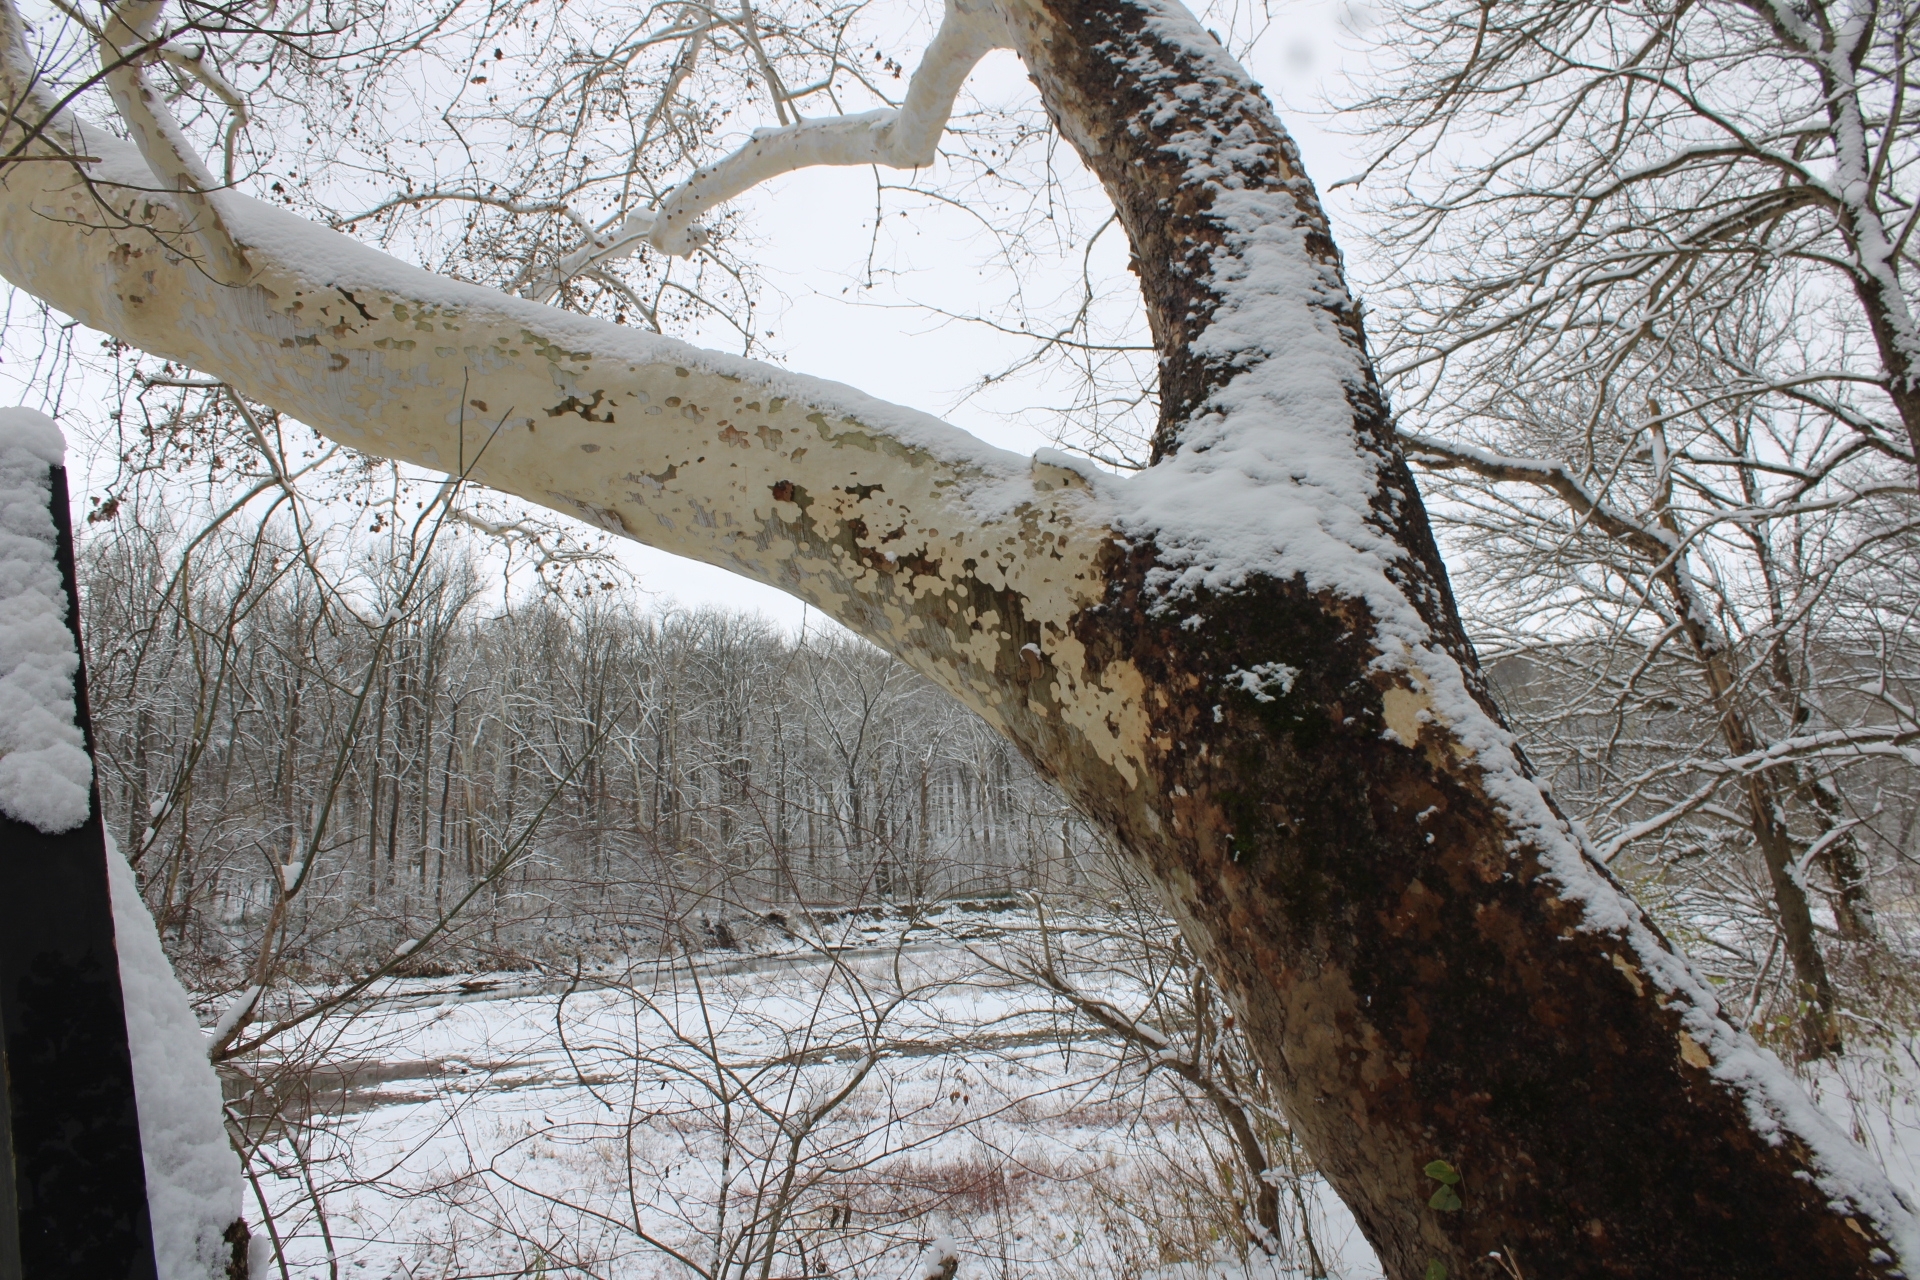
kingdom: Plantae
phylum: Tracheophyta
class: Magnoliopsida
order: Proteales
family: Platanaceae
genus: Platanus
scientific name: Platanus occidentalis
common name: American sycamore
